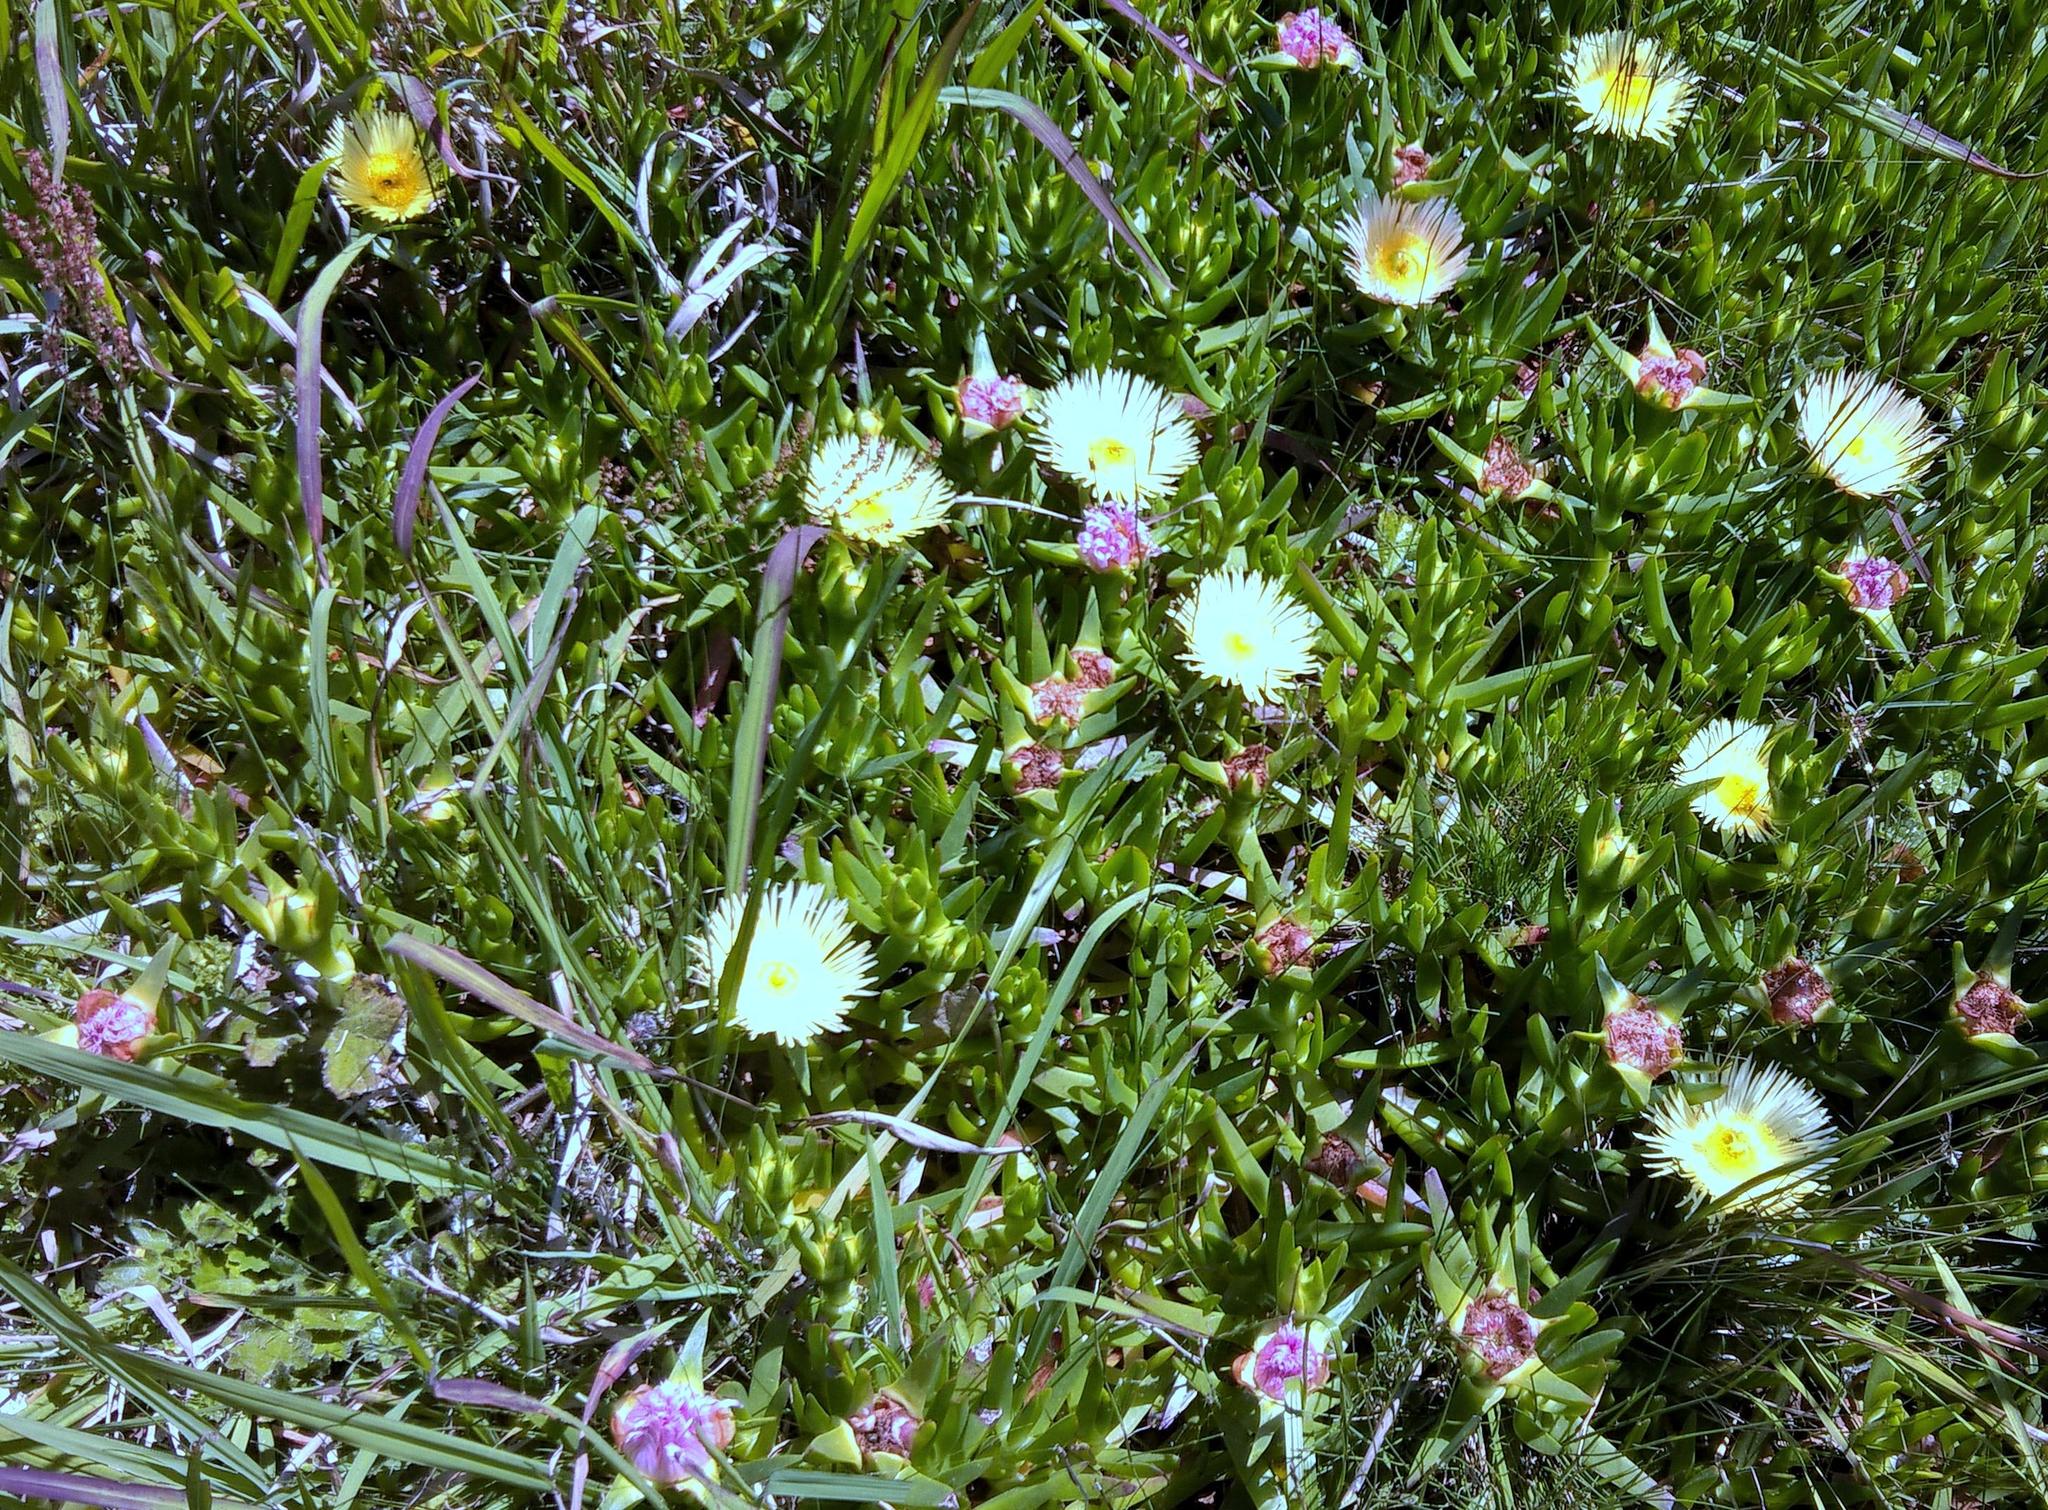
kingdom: Plantae
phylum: Tracheophyta
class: Magnoliopsida
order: Caryophyllales
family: Aizoaceae
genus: Carpobrotus
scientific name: Carpobrotus edulis
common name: Hottentot-fig
